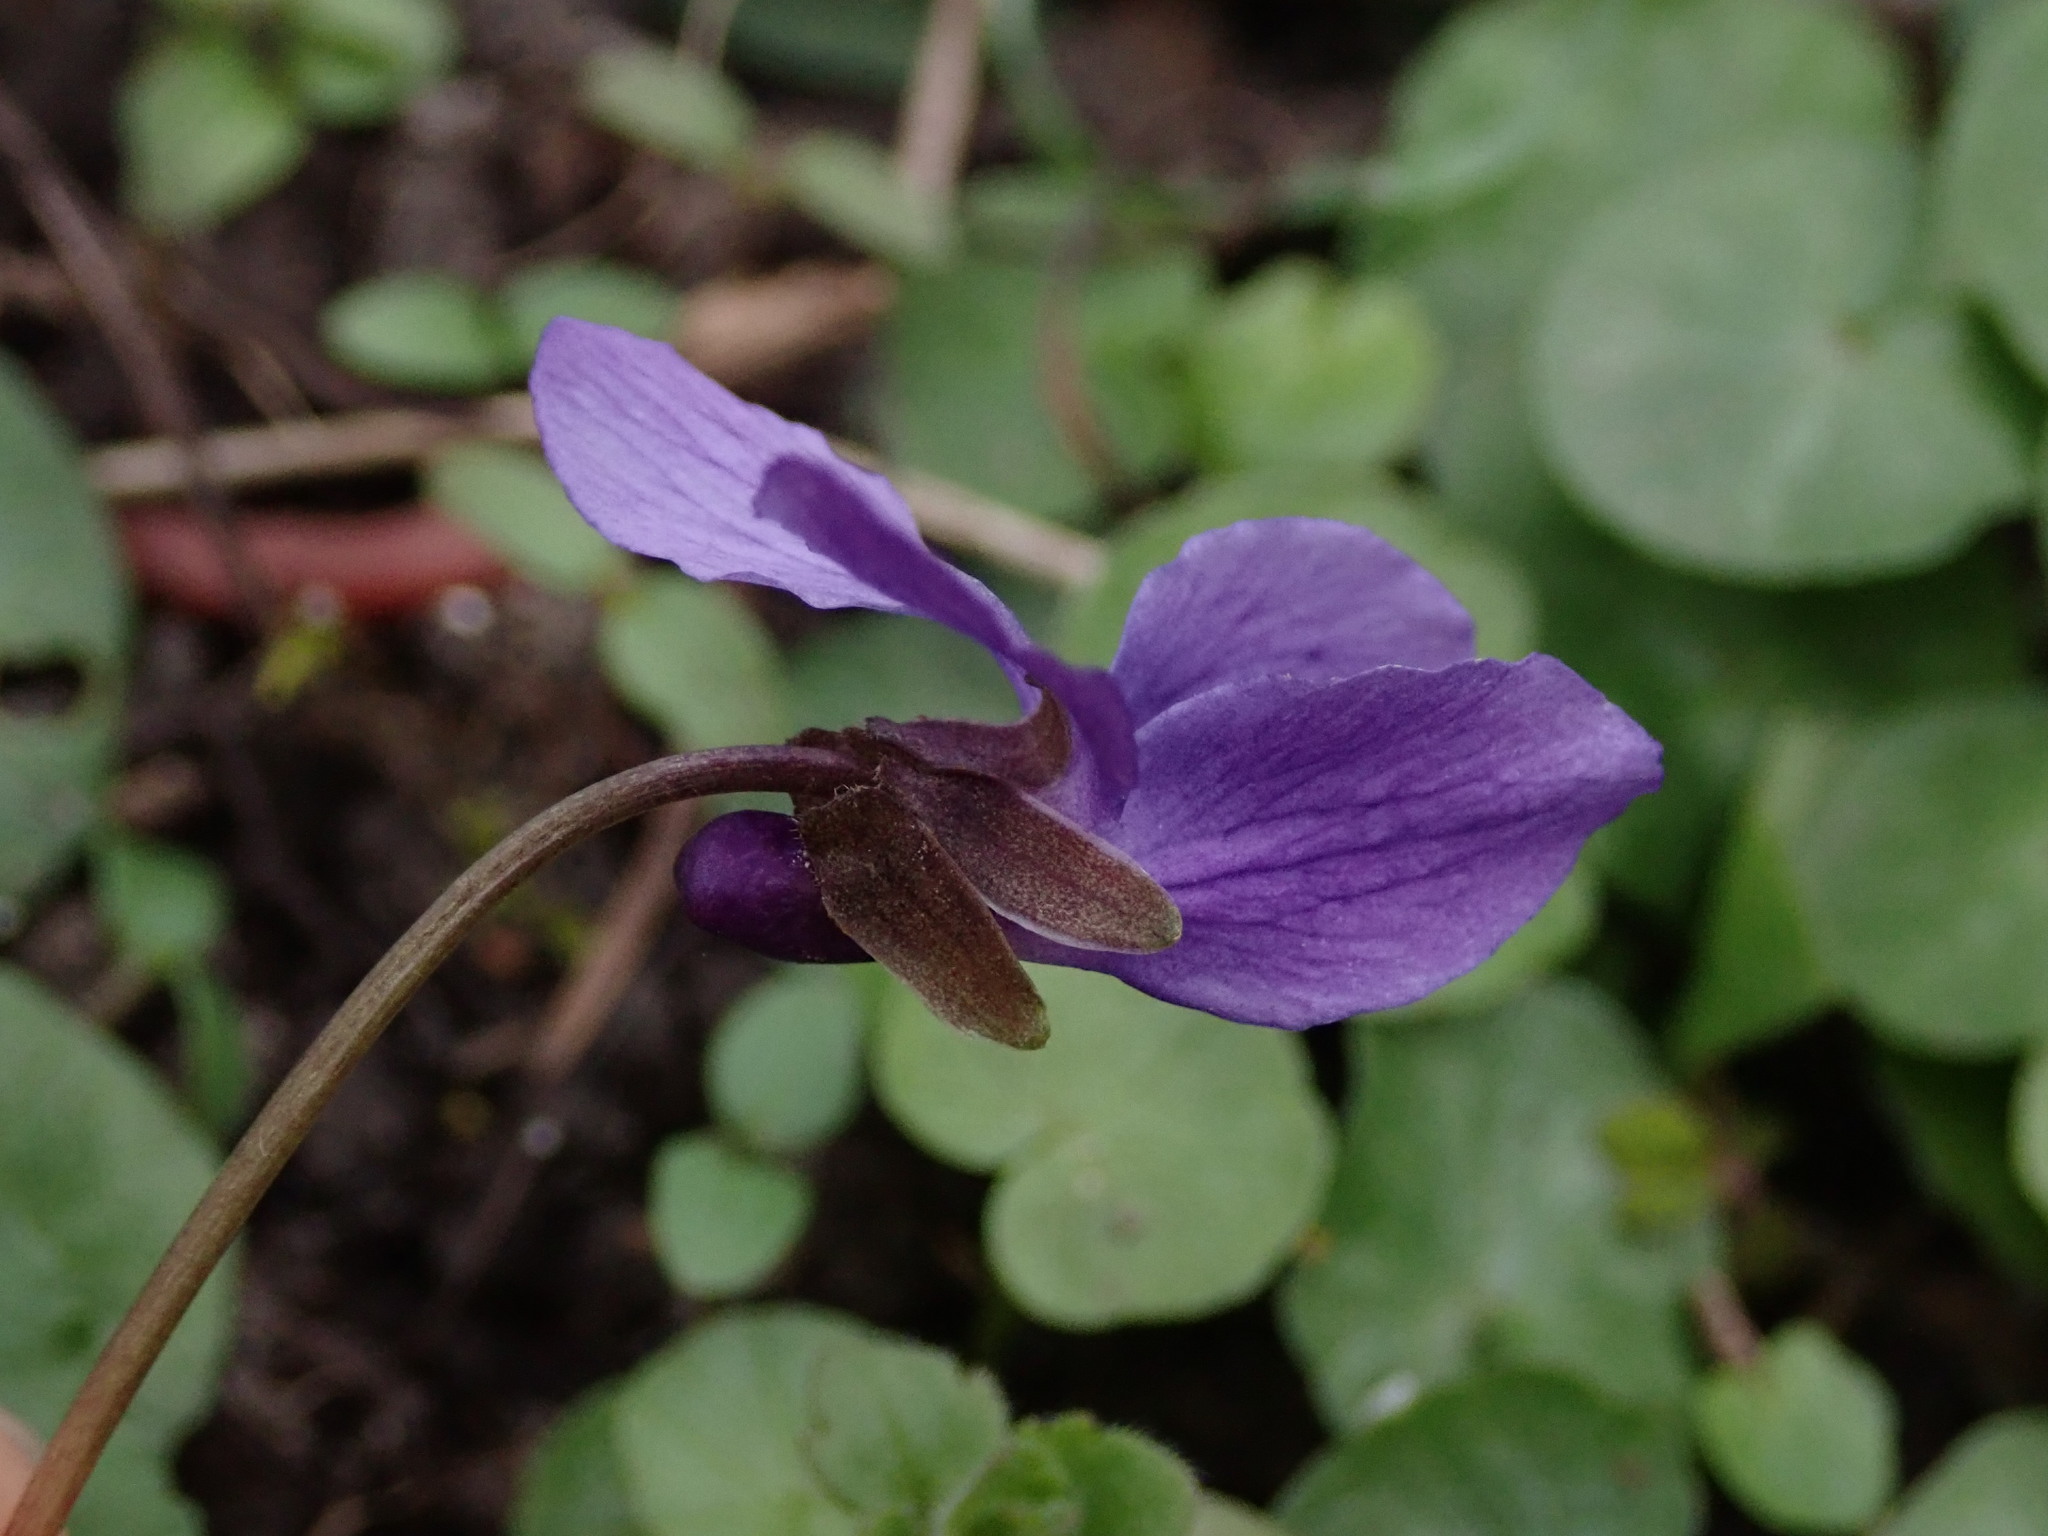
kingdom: Plantae
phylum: Tracheophyta
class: Magnoliopsida
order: Malpighiales
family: Violaceae
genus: Viola
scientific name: Viola odorata
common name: Sweet violet
